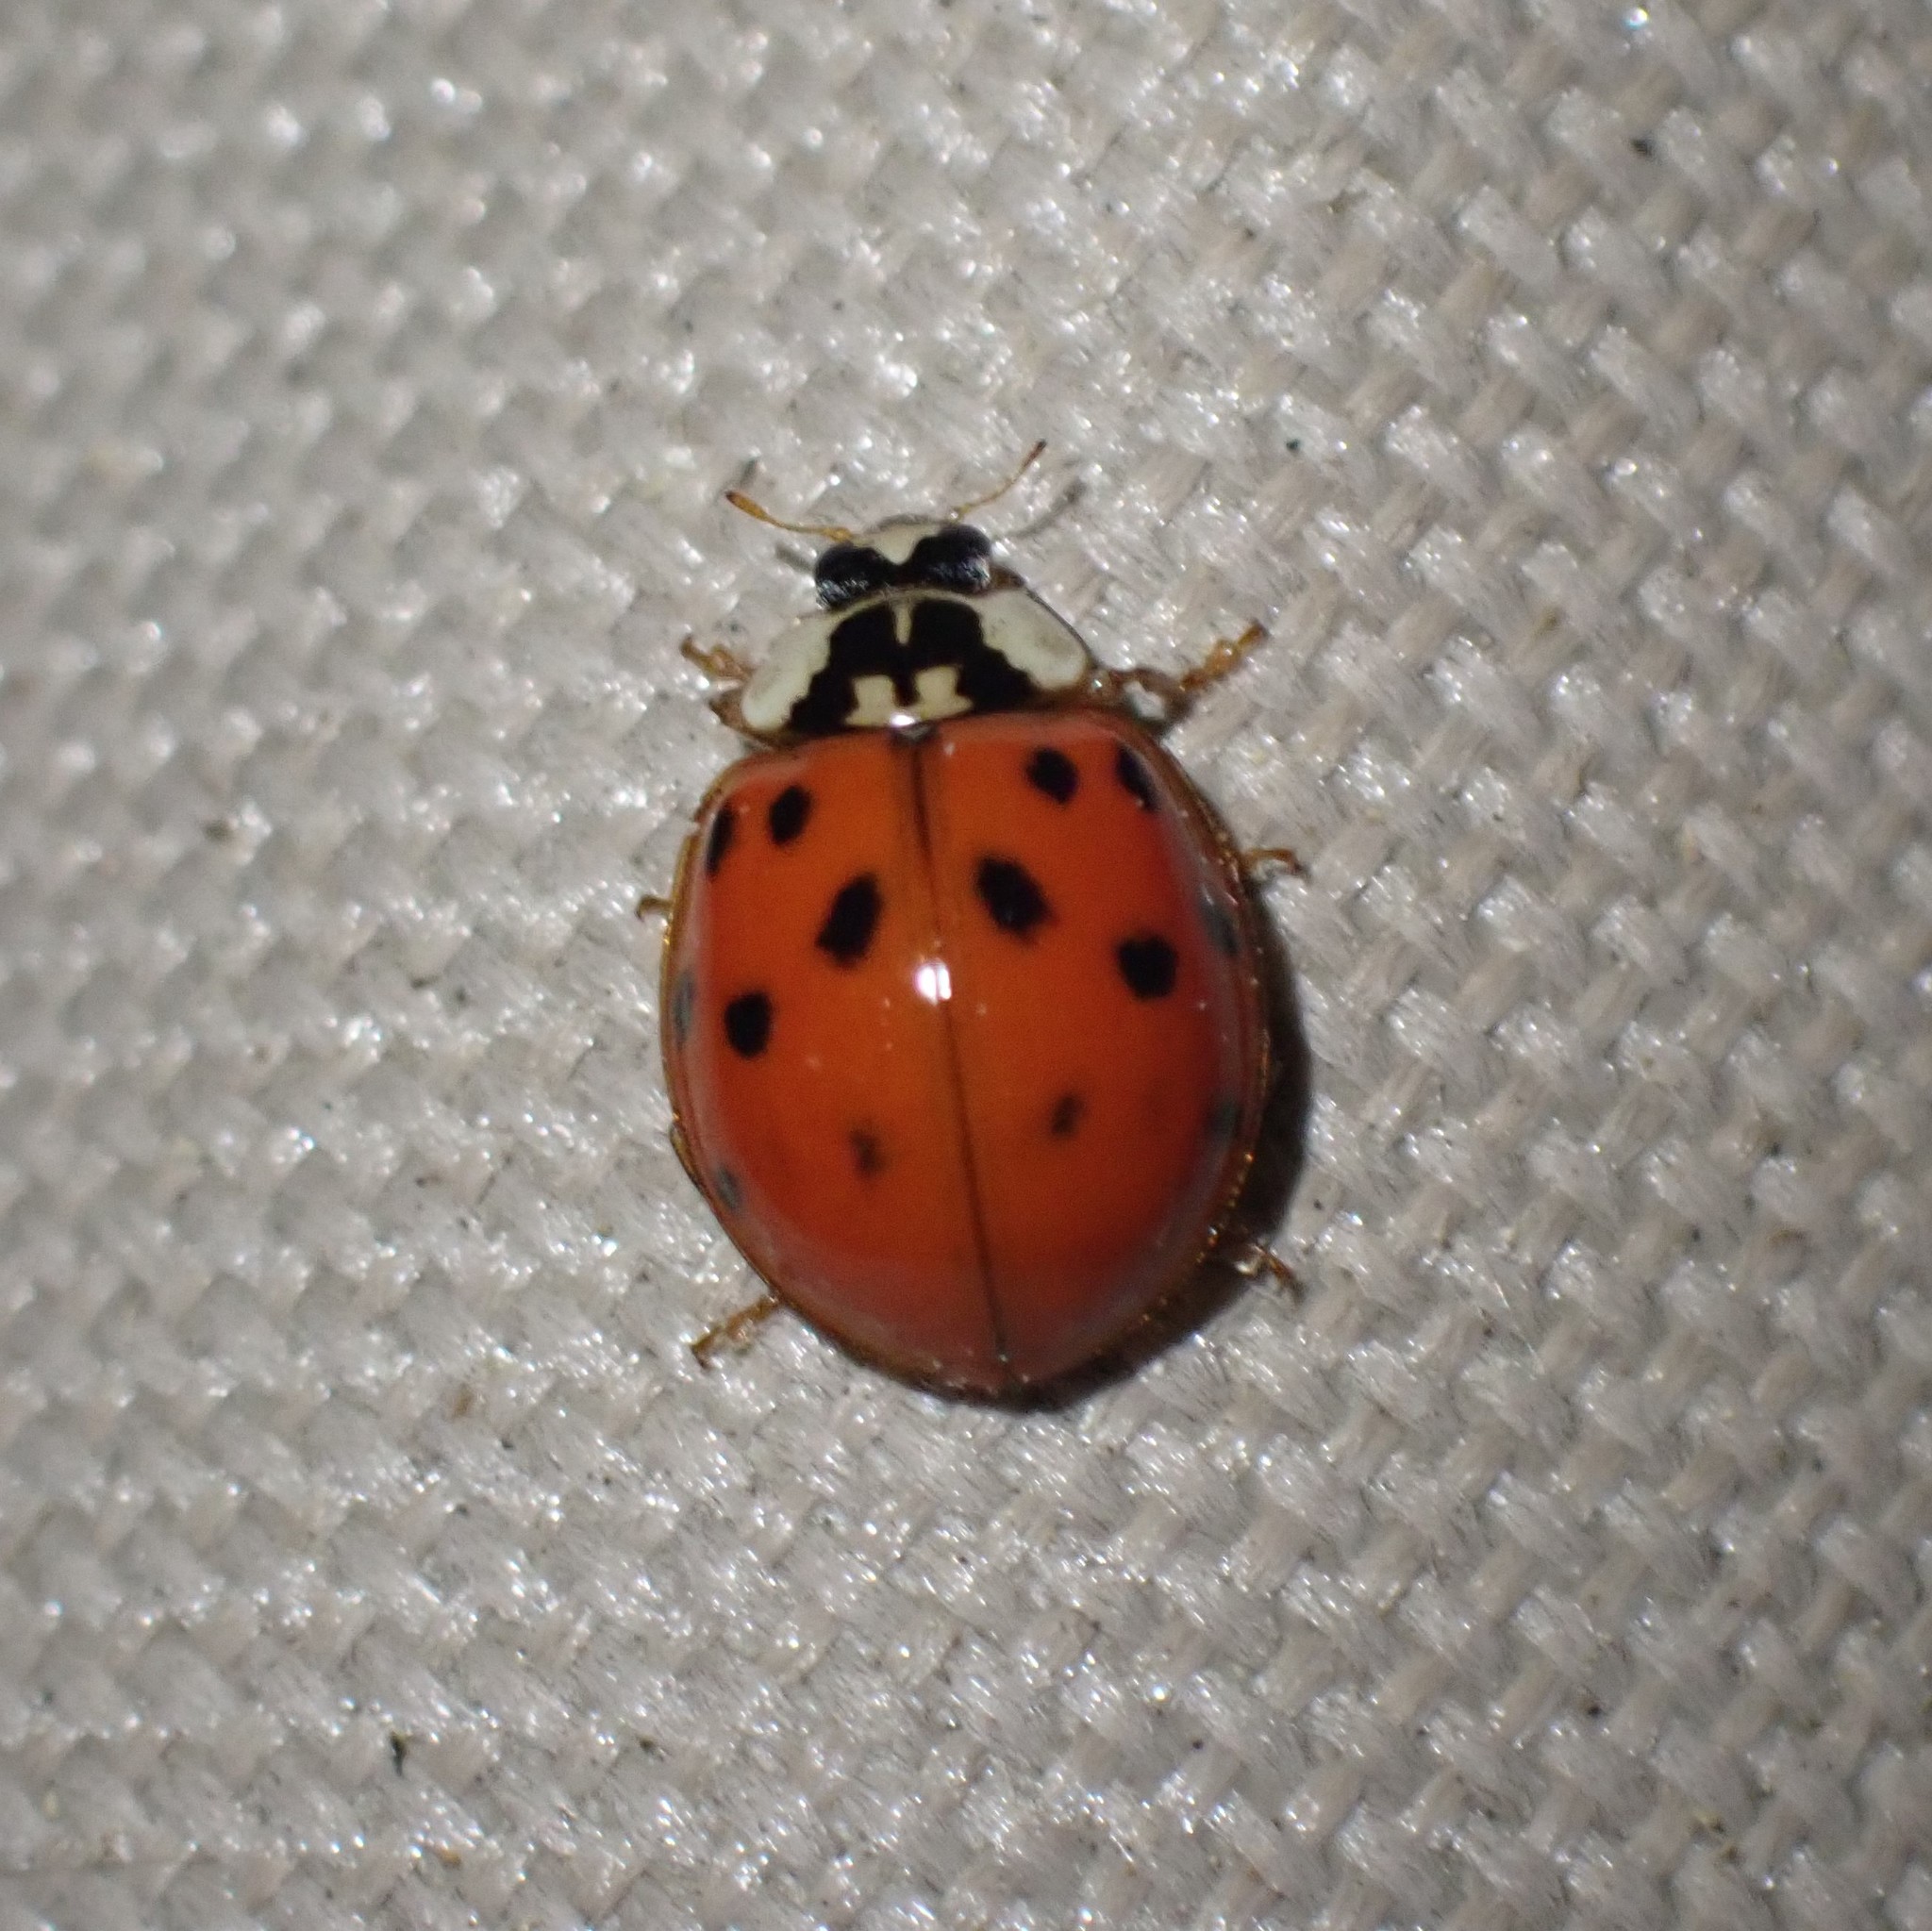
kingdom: Animalia
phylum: Arthropoda
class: Insecta
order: Coleoptera
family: Coccinellidae
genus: Harmonia
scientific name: Harmonia axyridis
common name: Harlequin ladybird
